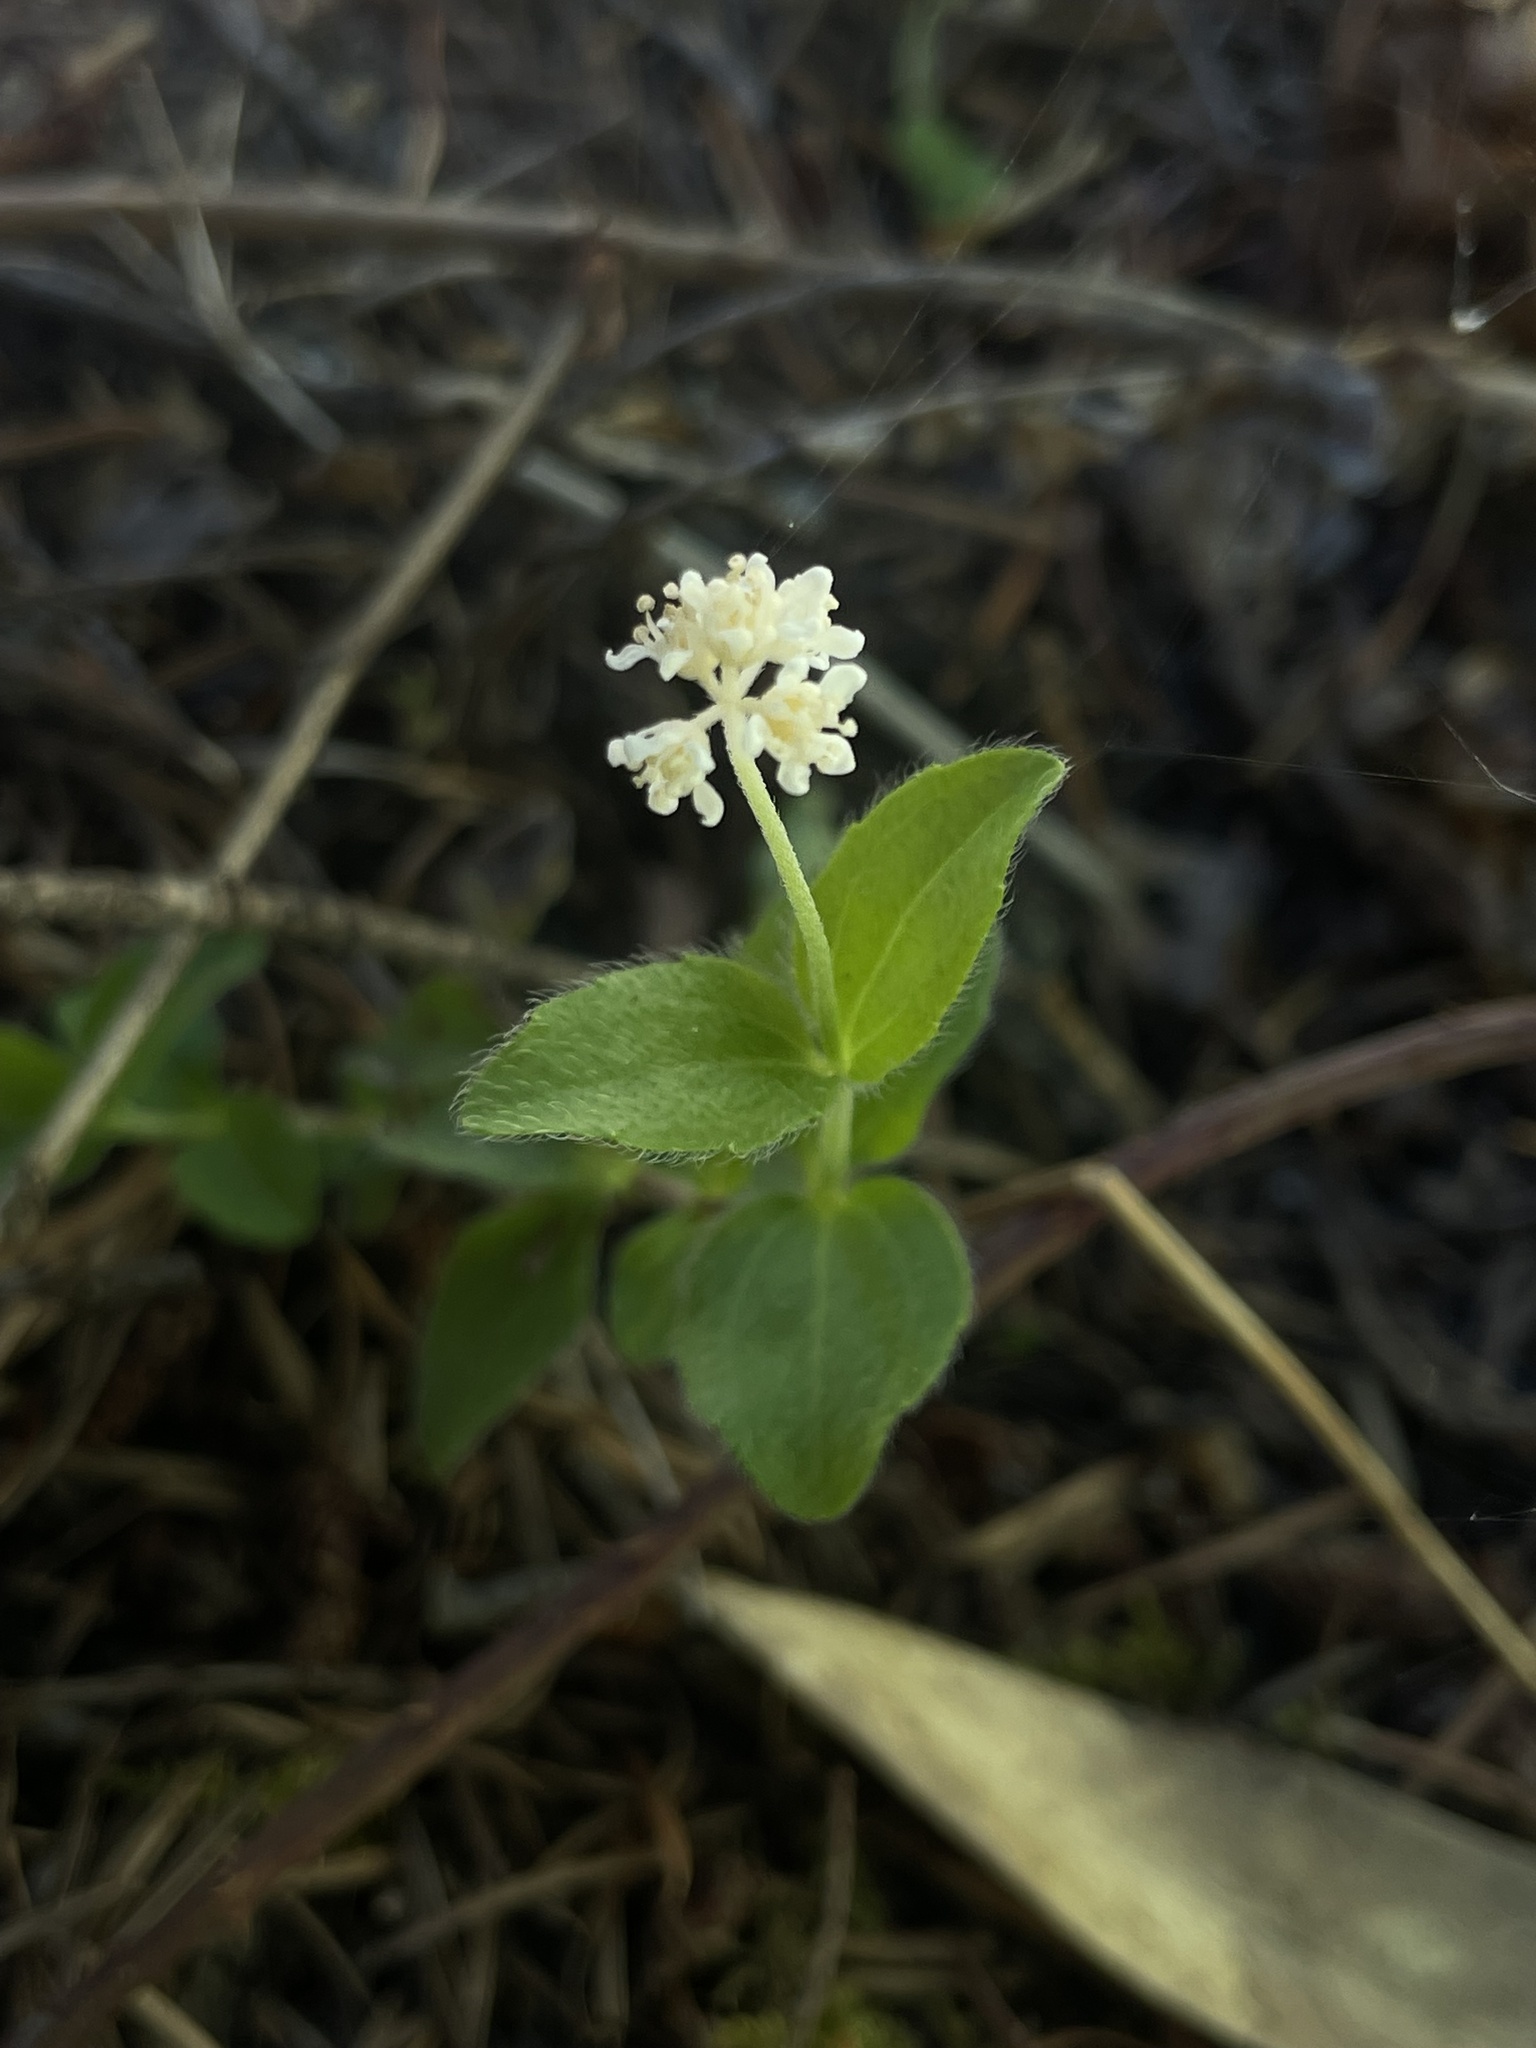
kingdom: Plantae
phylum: Tracheophyta
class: Magnoliopsida
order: Cornales
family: Hydrangeaceae
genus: Whipplea
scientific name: Whipplea modesta
